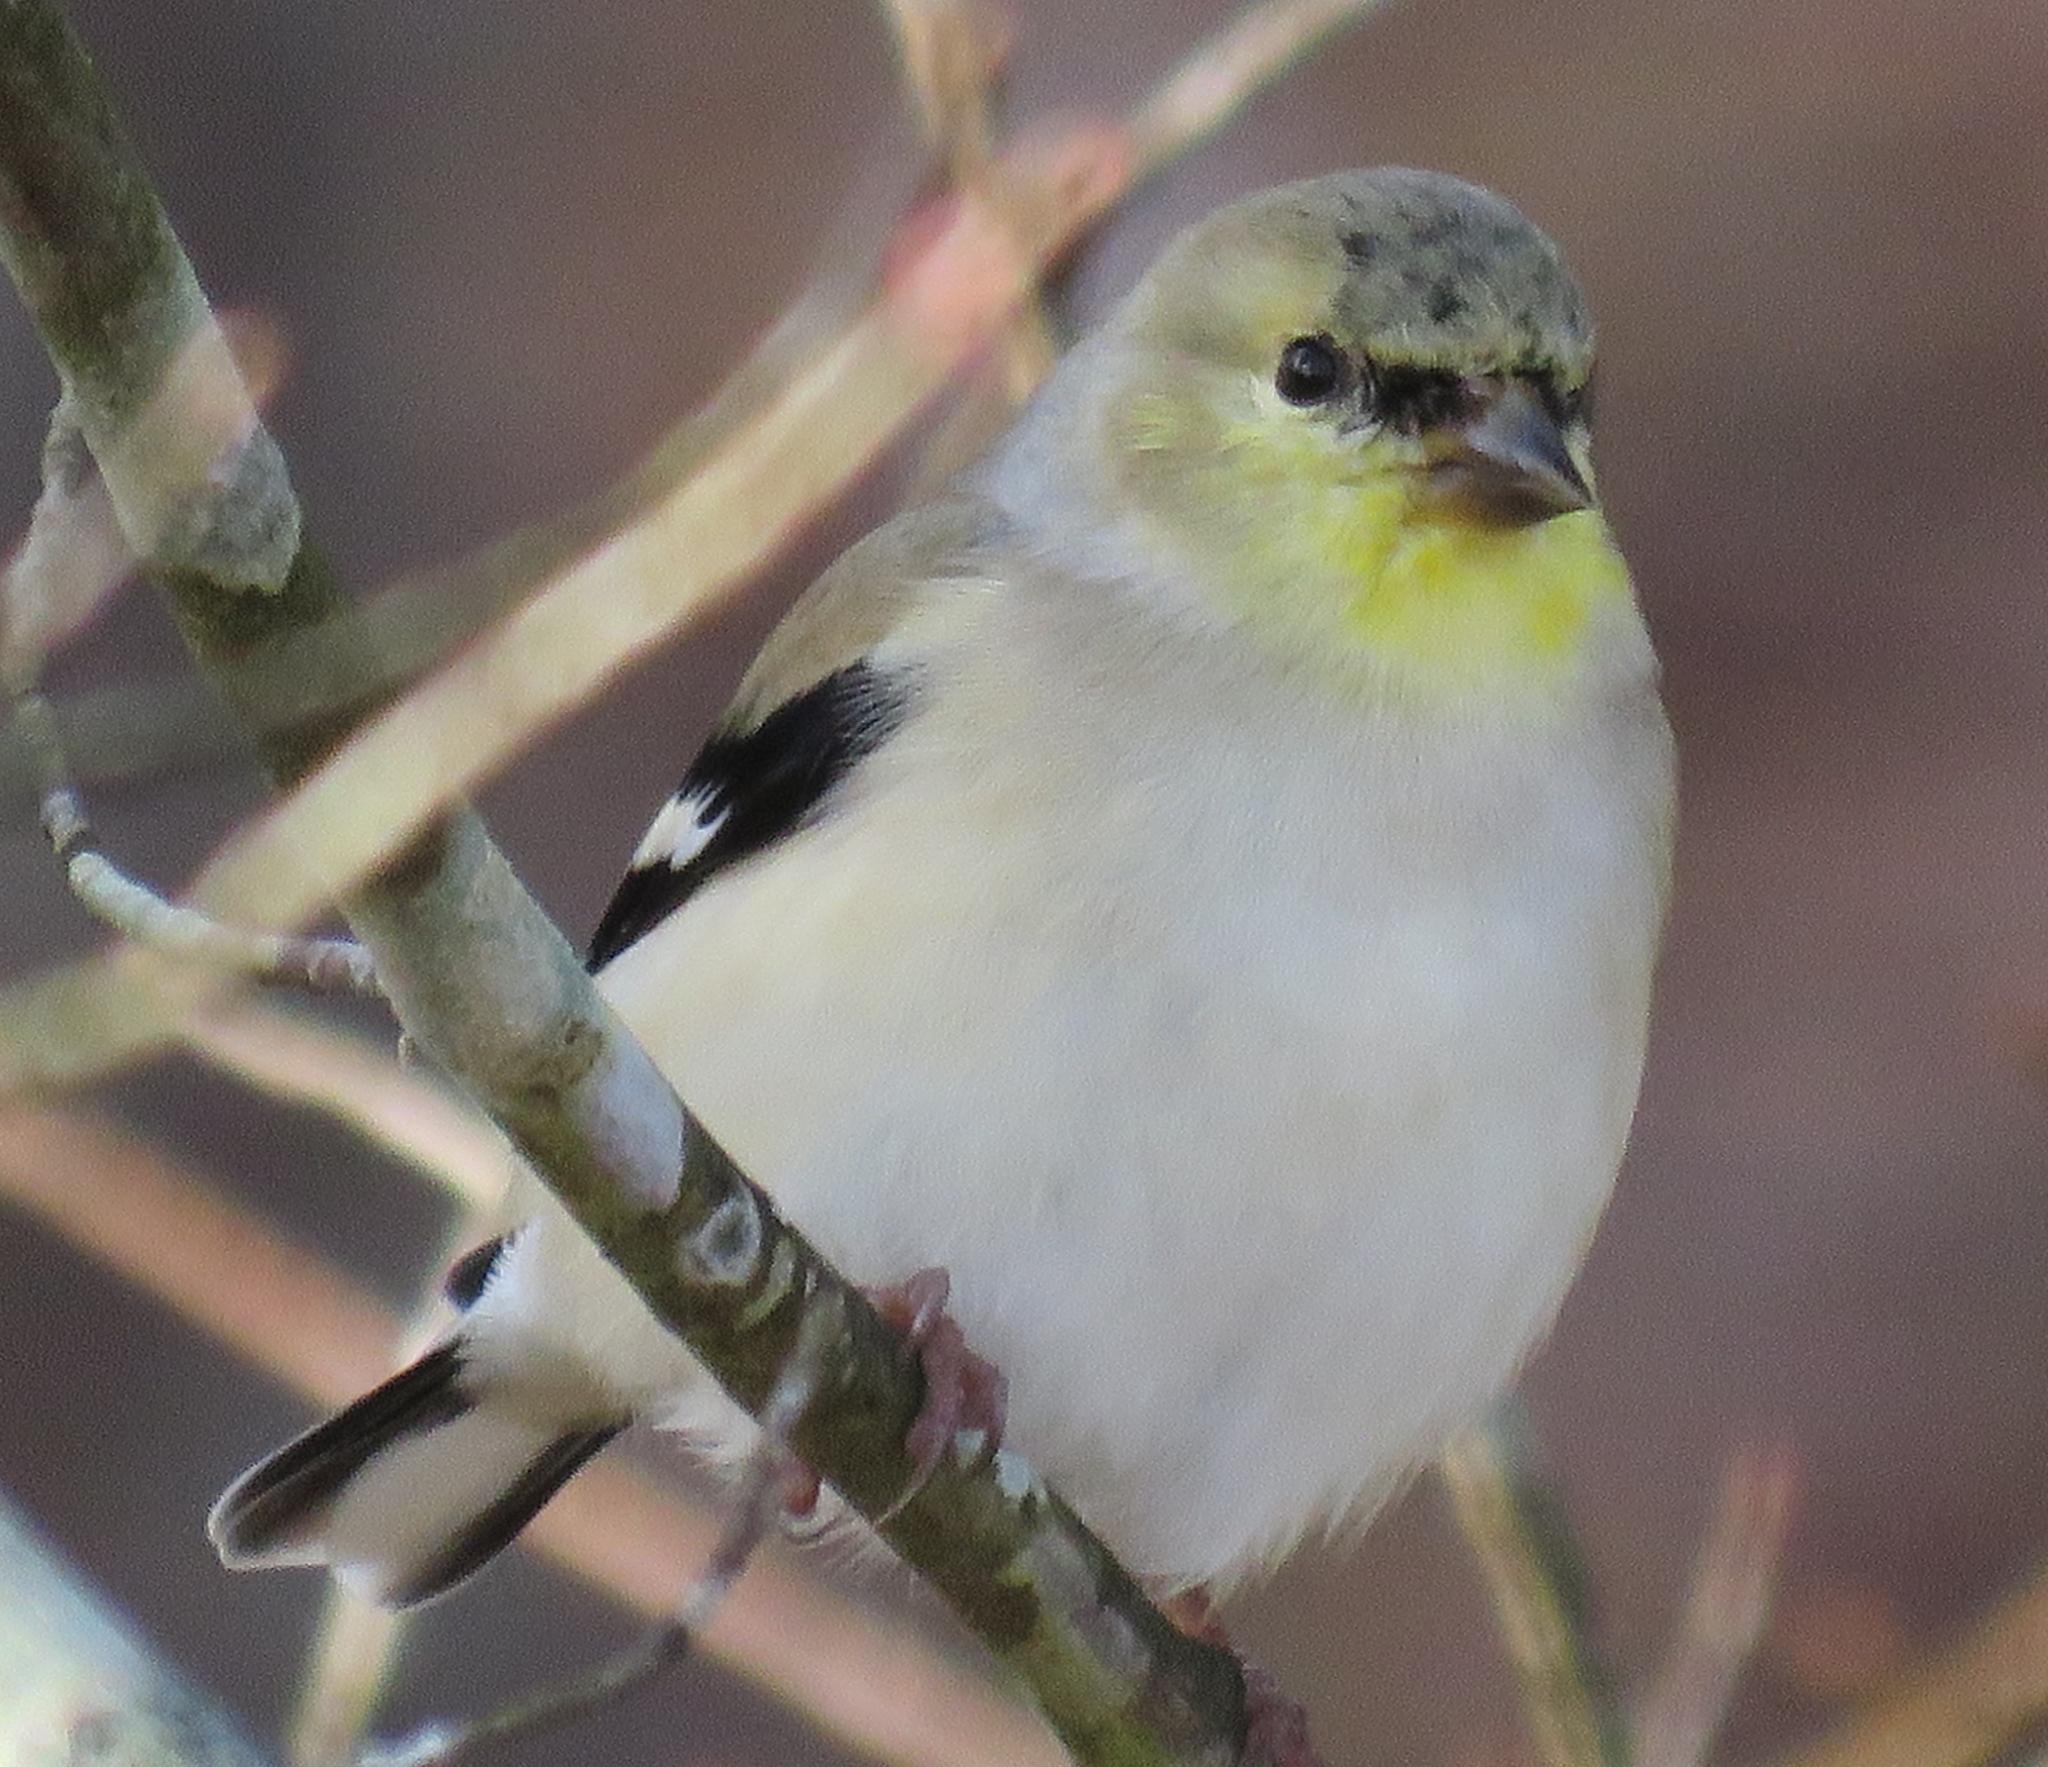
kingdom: Animalia
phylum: Chordata
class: Aves
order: Passeriformes
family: Fringillidae
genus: Spinus
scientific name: Spinus tristis
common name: American goldfinch
